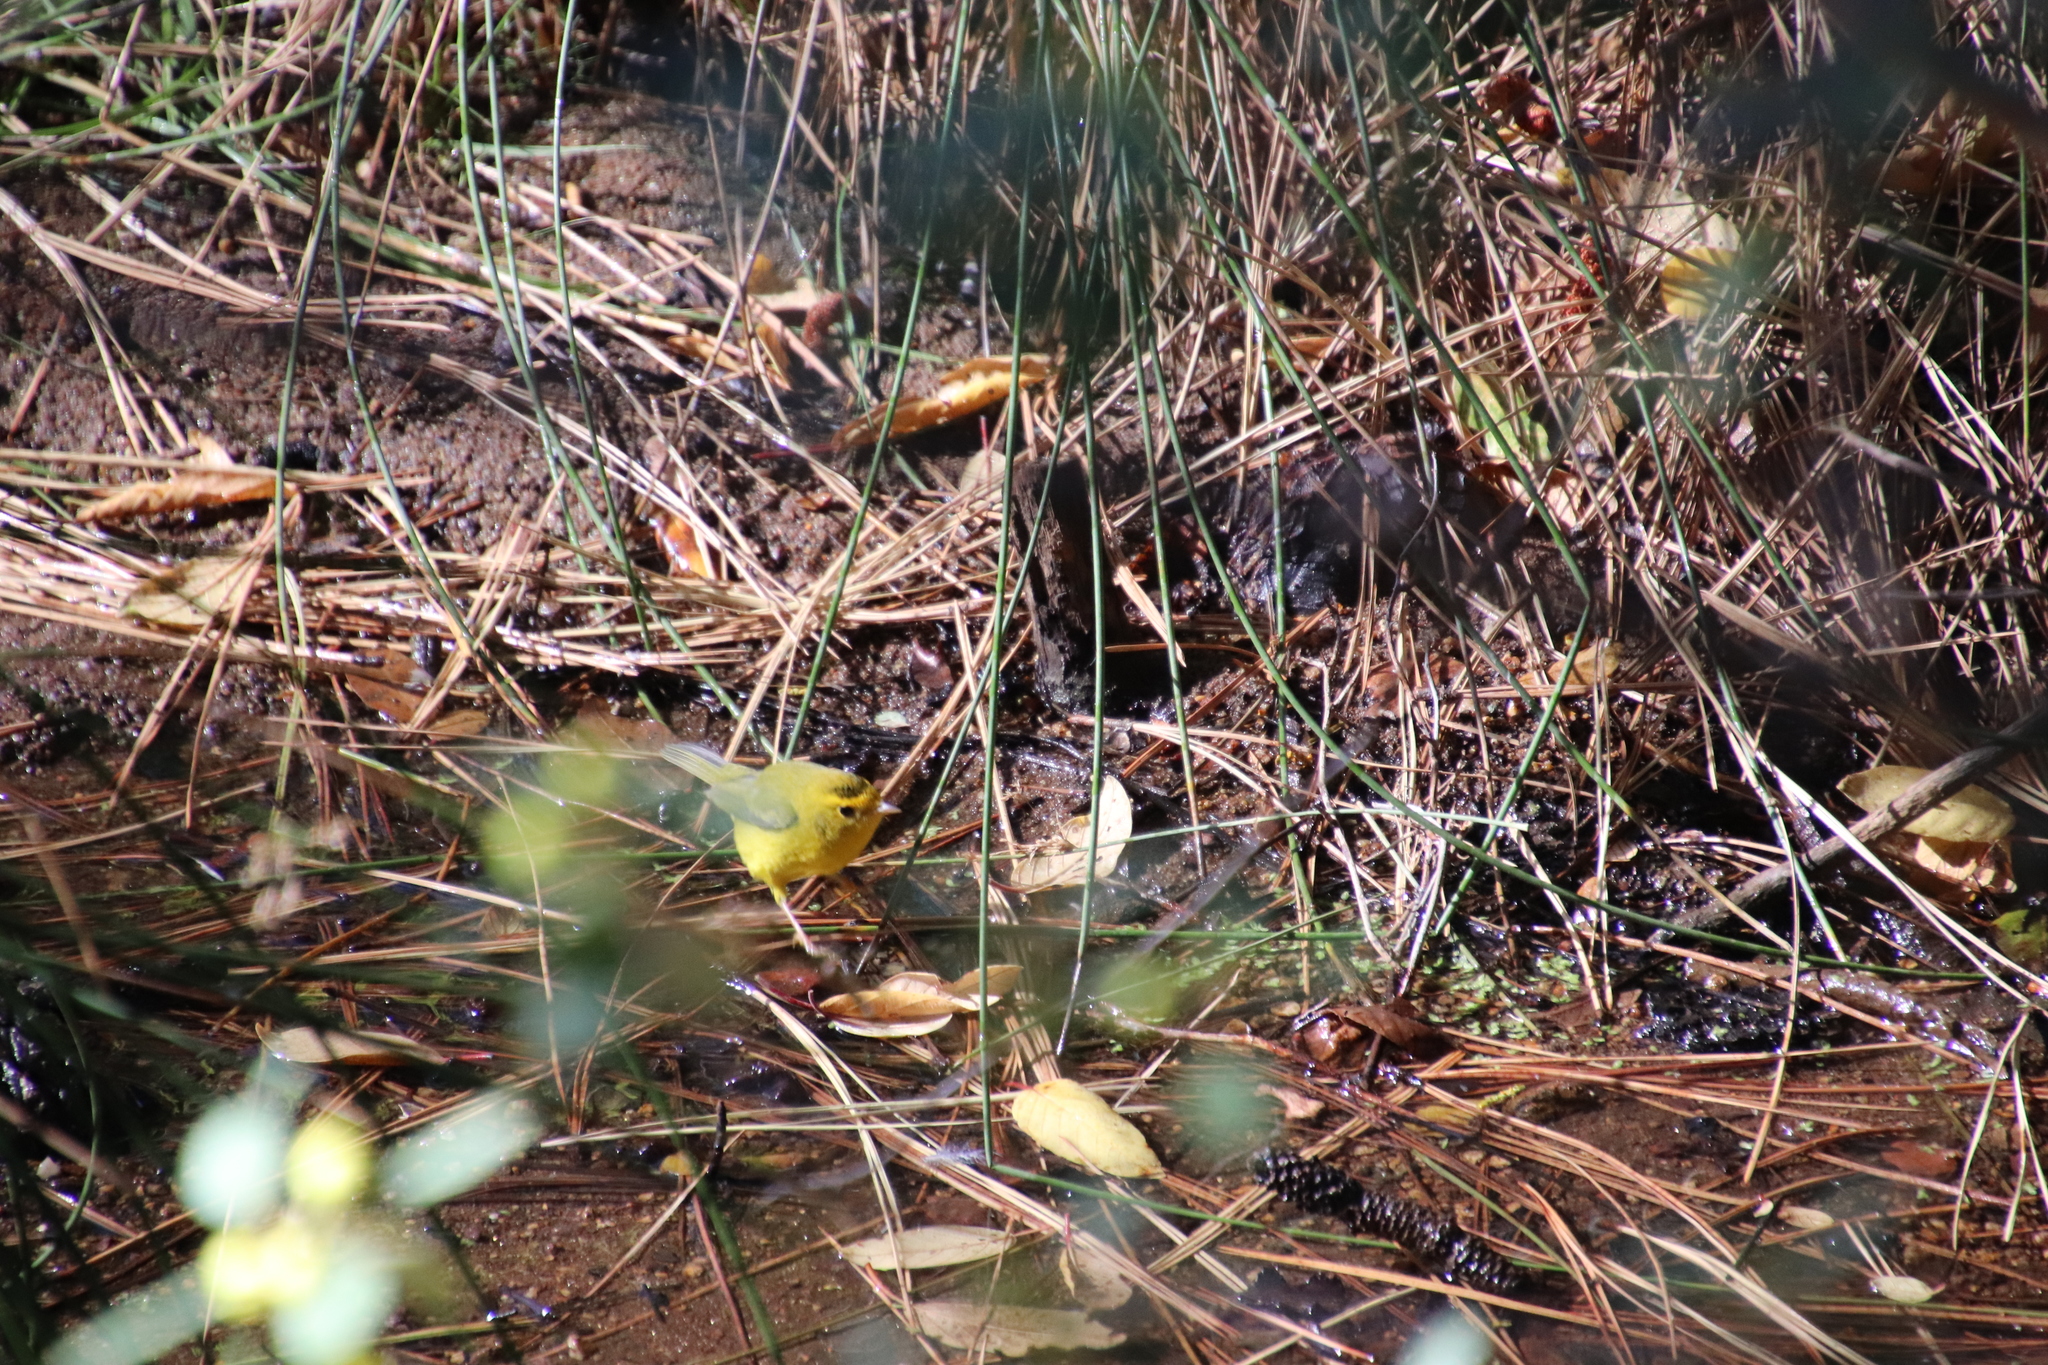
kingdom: Animalia
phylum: Chordata
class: Aves
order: Passeriformes
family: Parulidae
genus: Cardellina
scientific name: Cardellina pusilla
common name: Wilson's warbler
